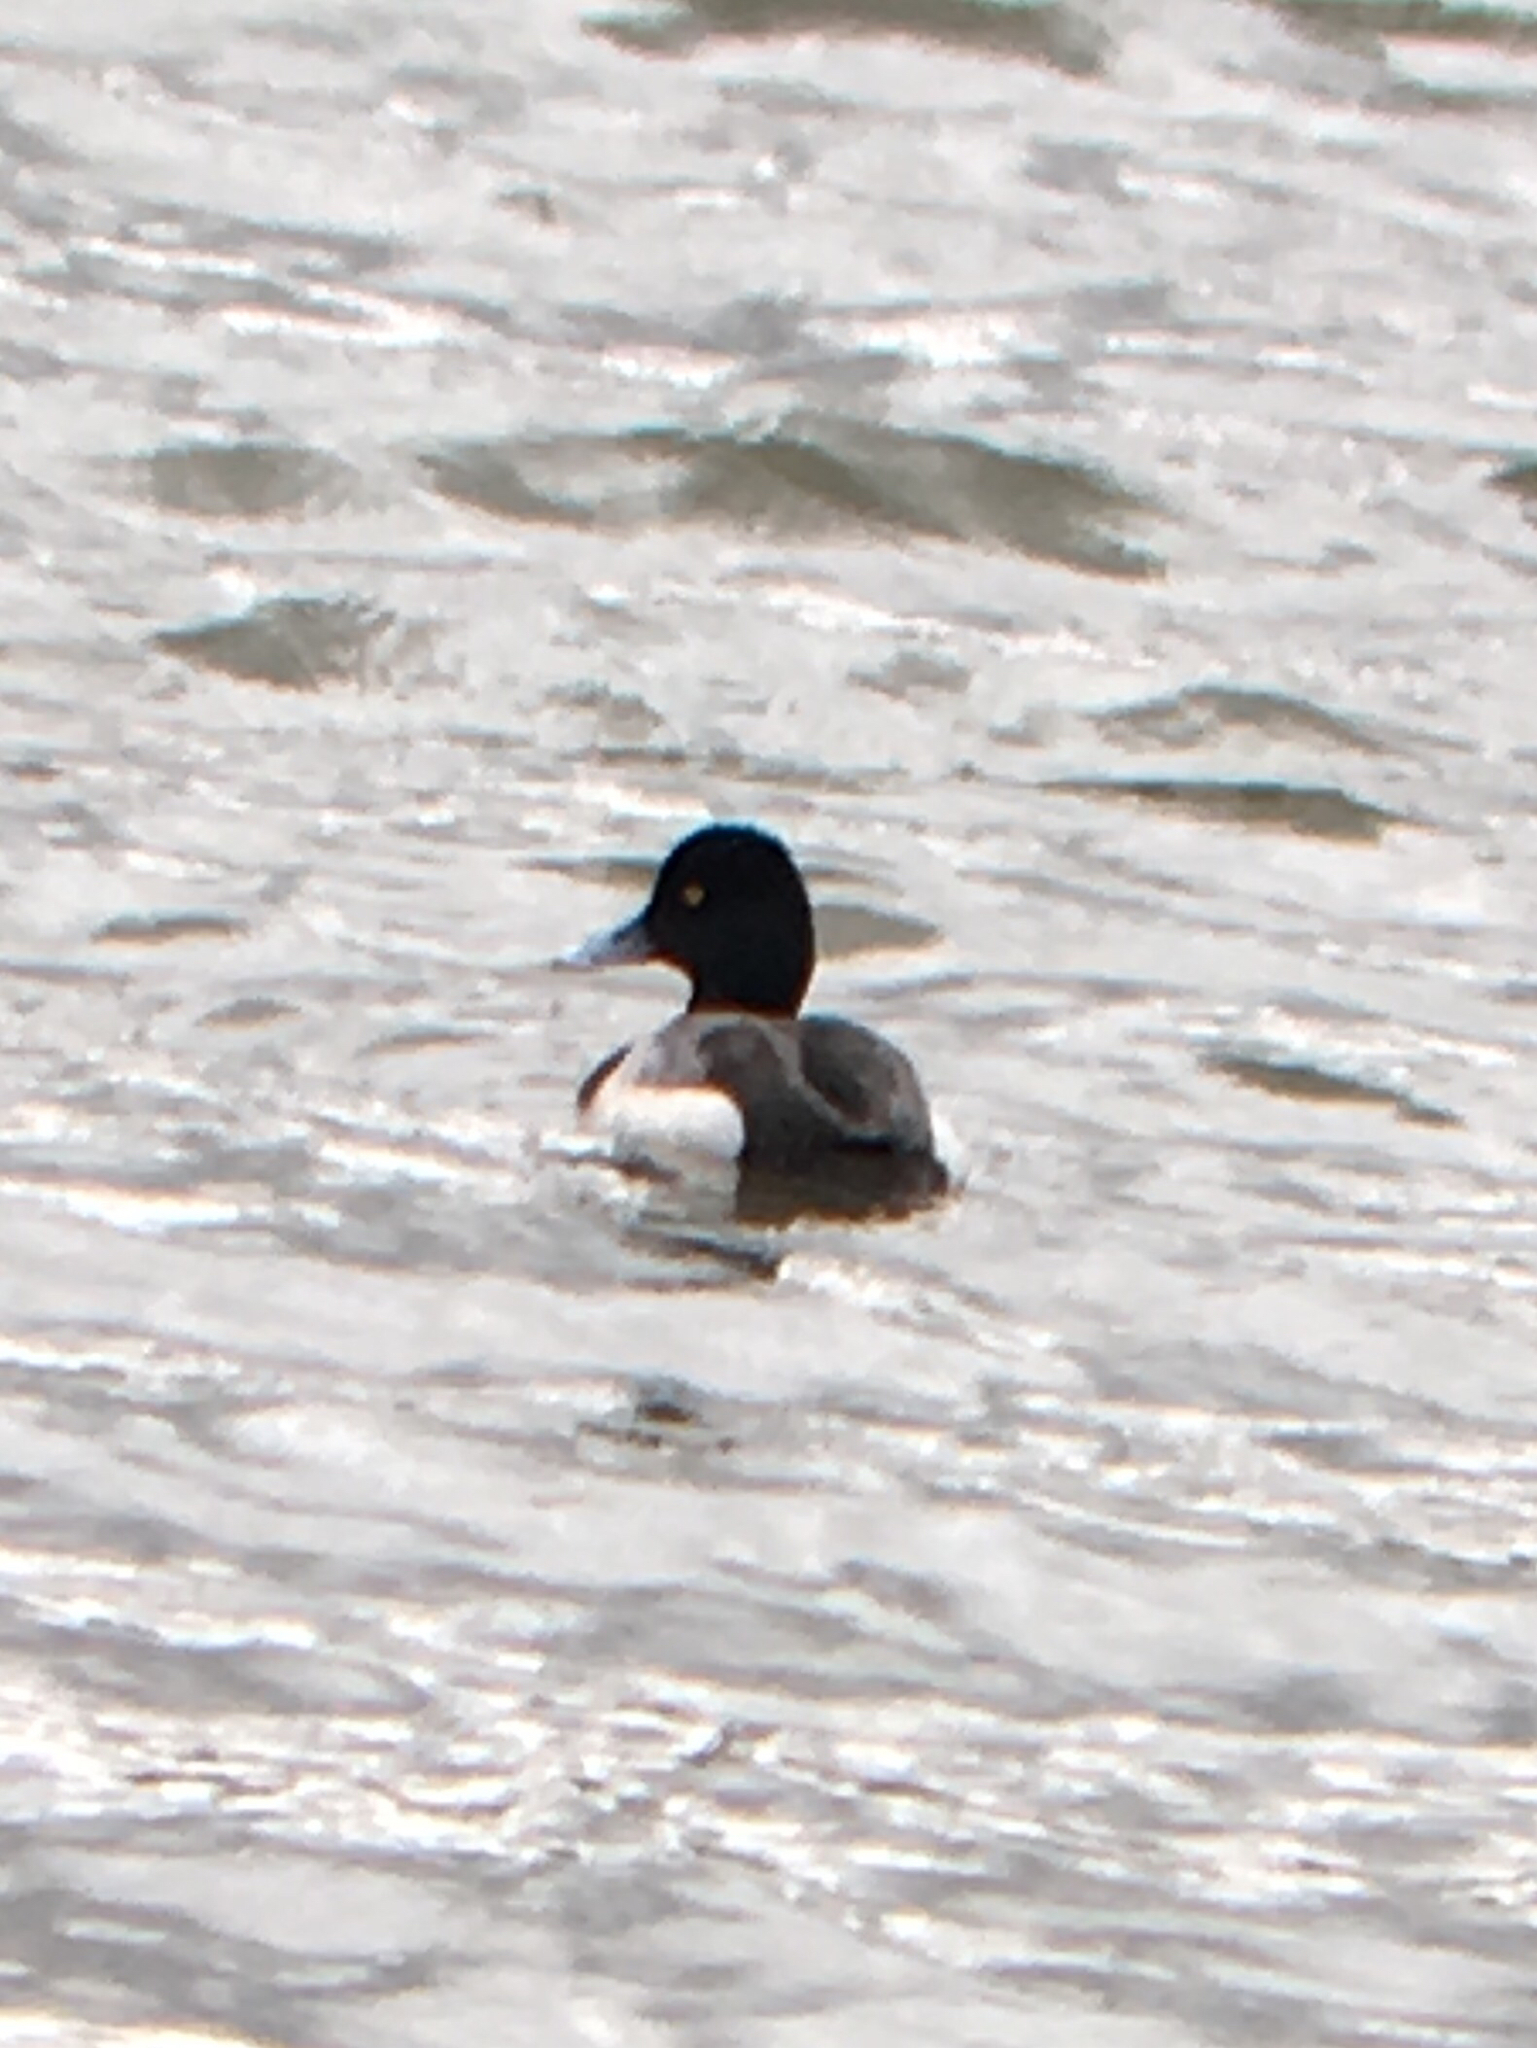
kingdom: Animalia
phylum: Chordata
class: Aves
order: Anseriformes
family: Anatidae
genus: Aythya
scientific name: Aythya affinis
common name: Lesser scaup
